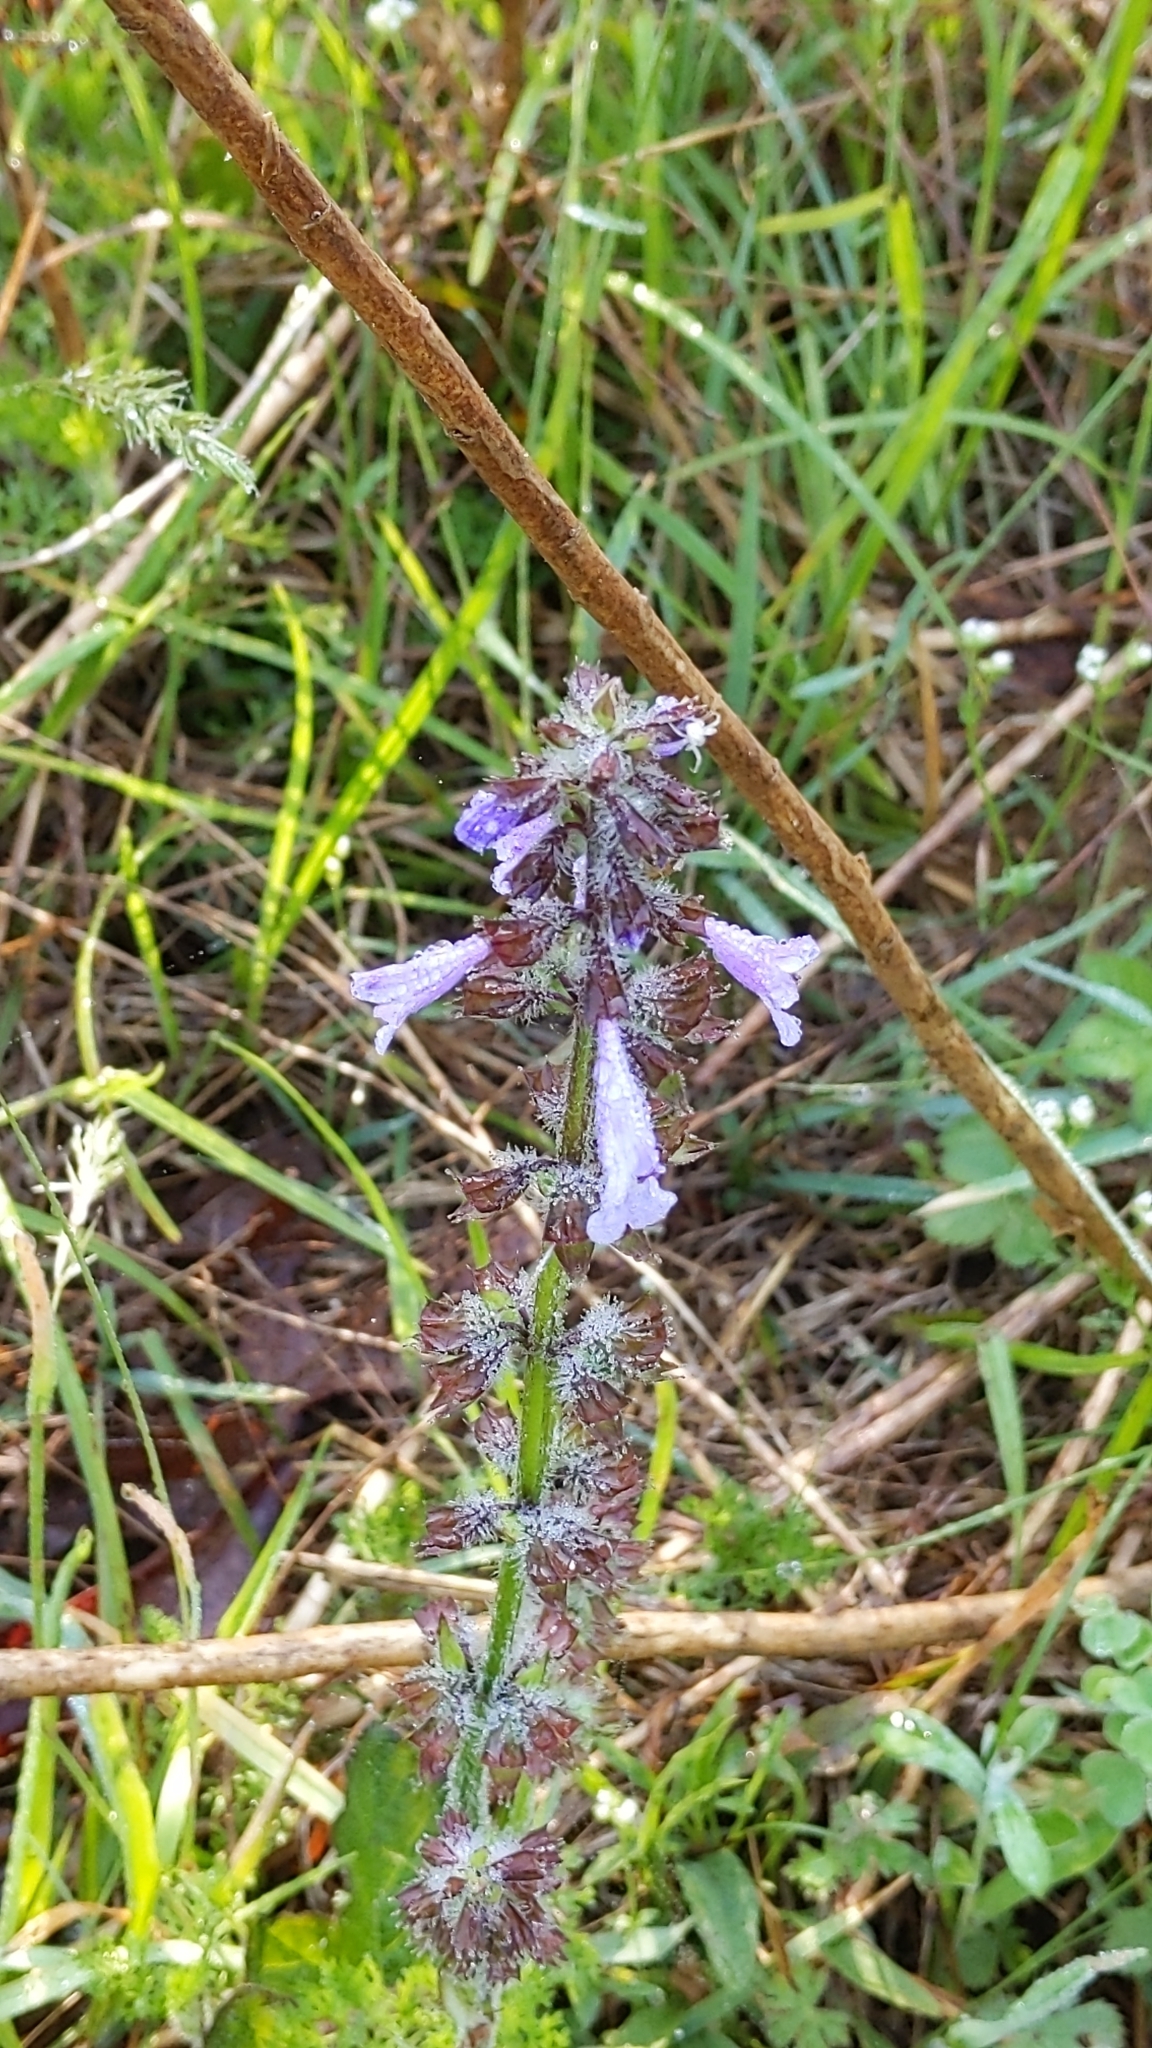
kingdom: Plantae
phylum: Tracheophyta
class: Magnoliopsida
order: Lamiales
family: Lamiaceae
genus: Salvia
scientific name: Salvia lyrata
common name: Cancerweed
